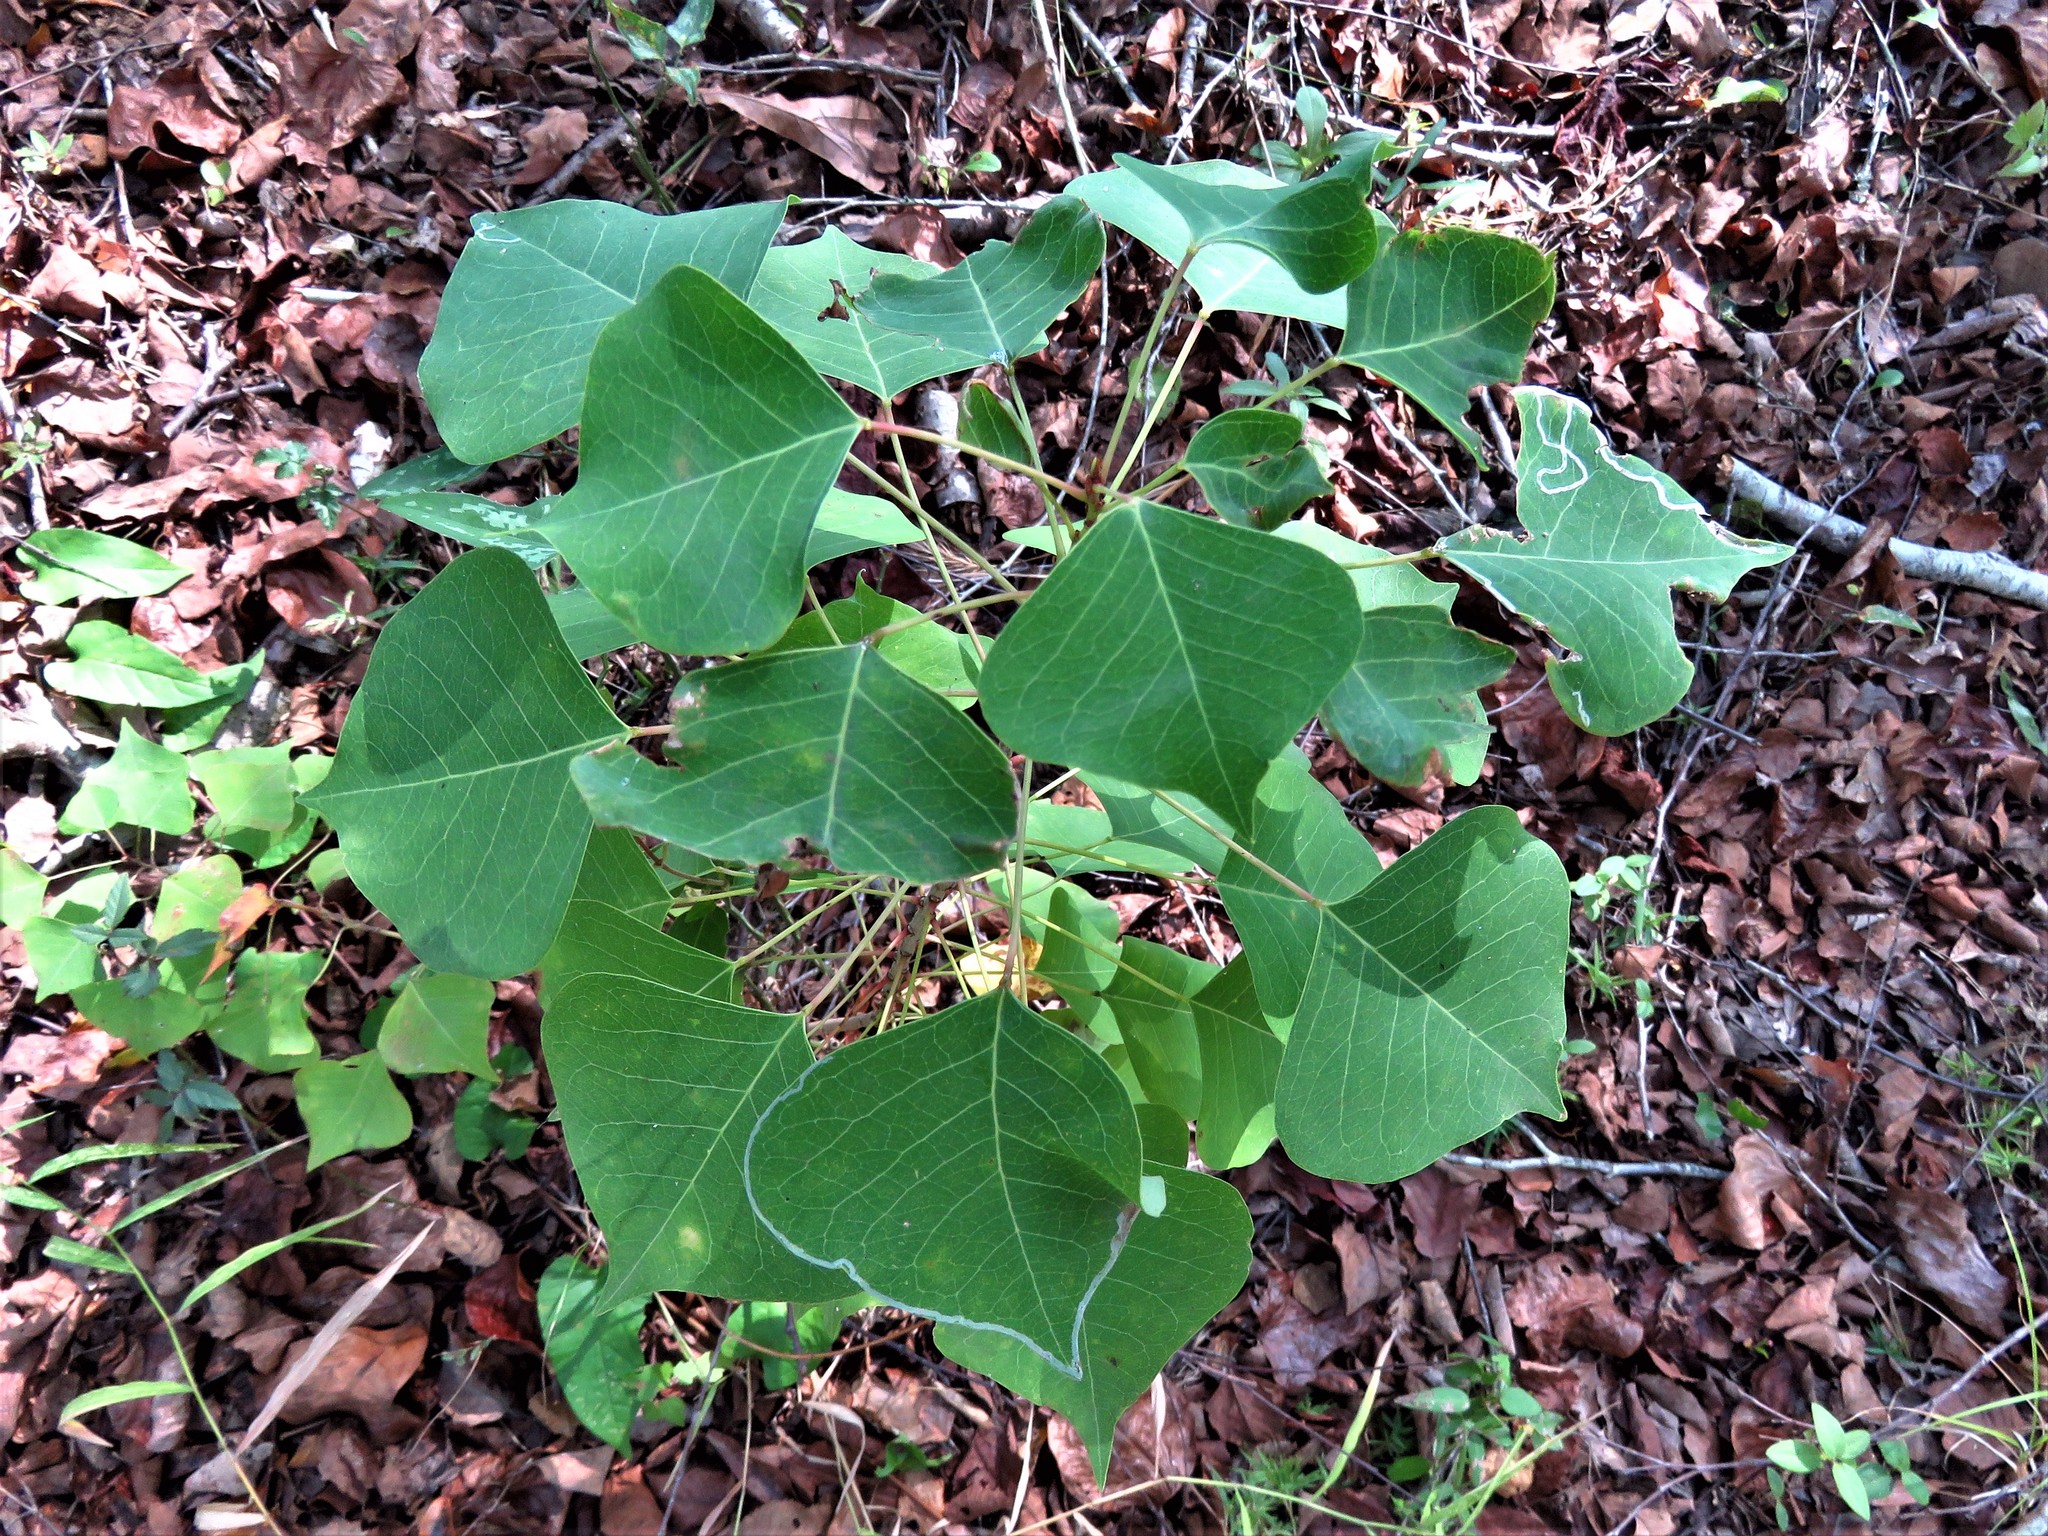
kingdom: Plantae
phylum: Tracheophyta
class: Magnoliopsida
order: Malpighiales
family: Euphorbiaceae
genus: Triadica
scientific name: Triadica sebifera
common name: Chinese tallow
